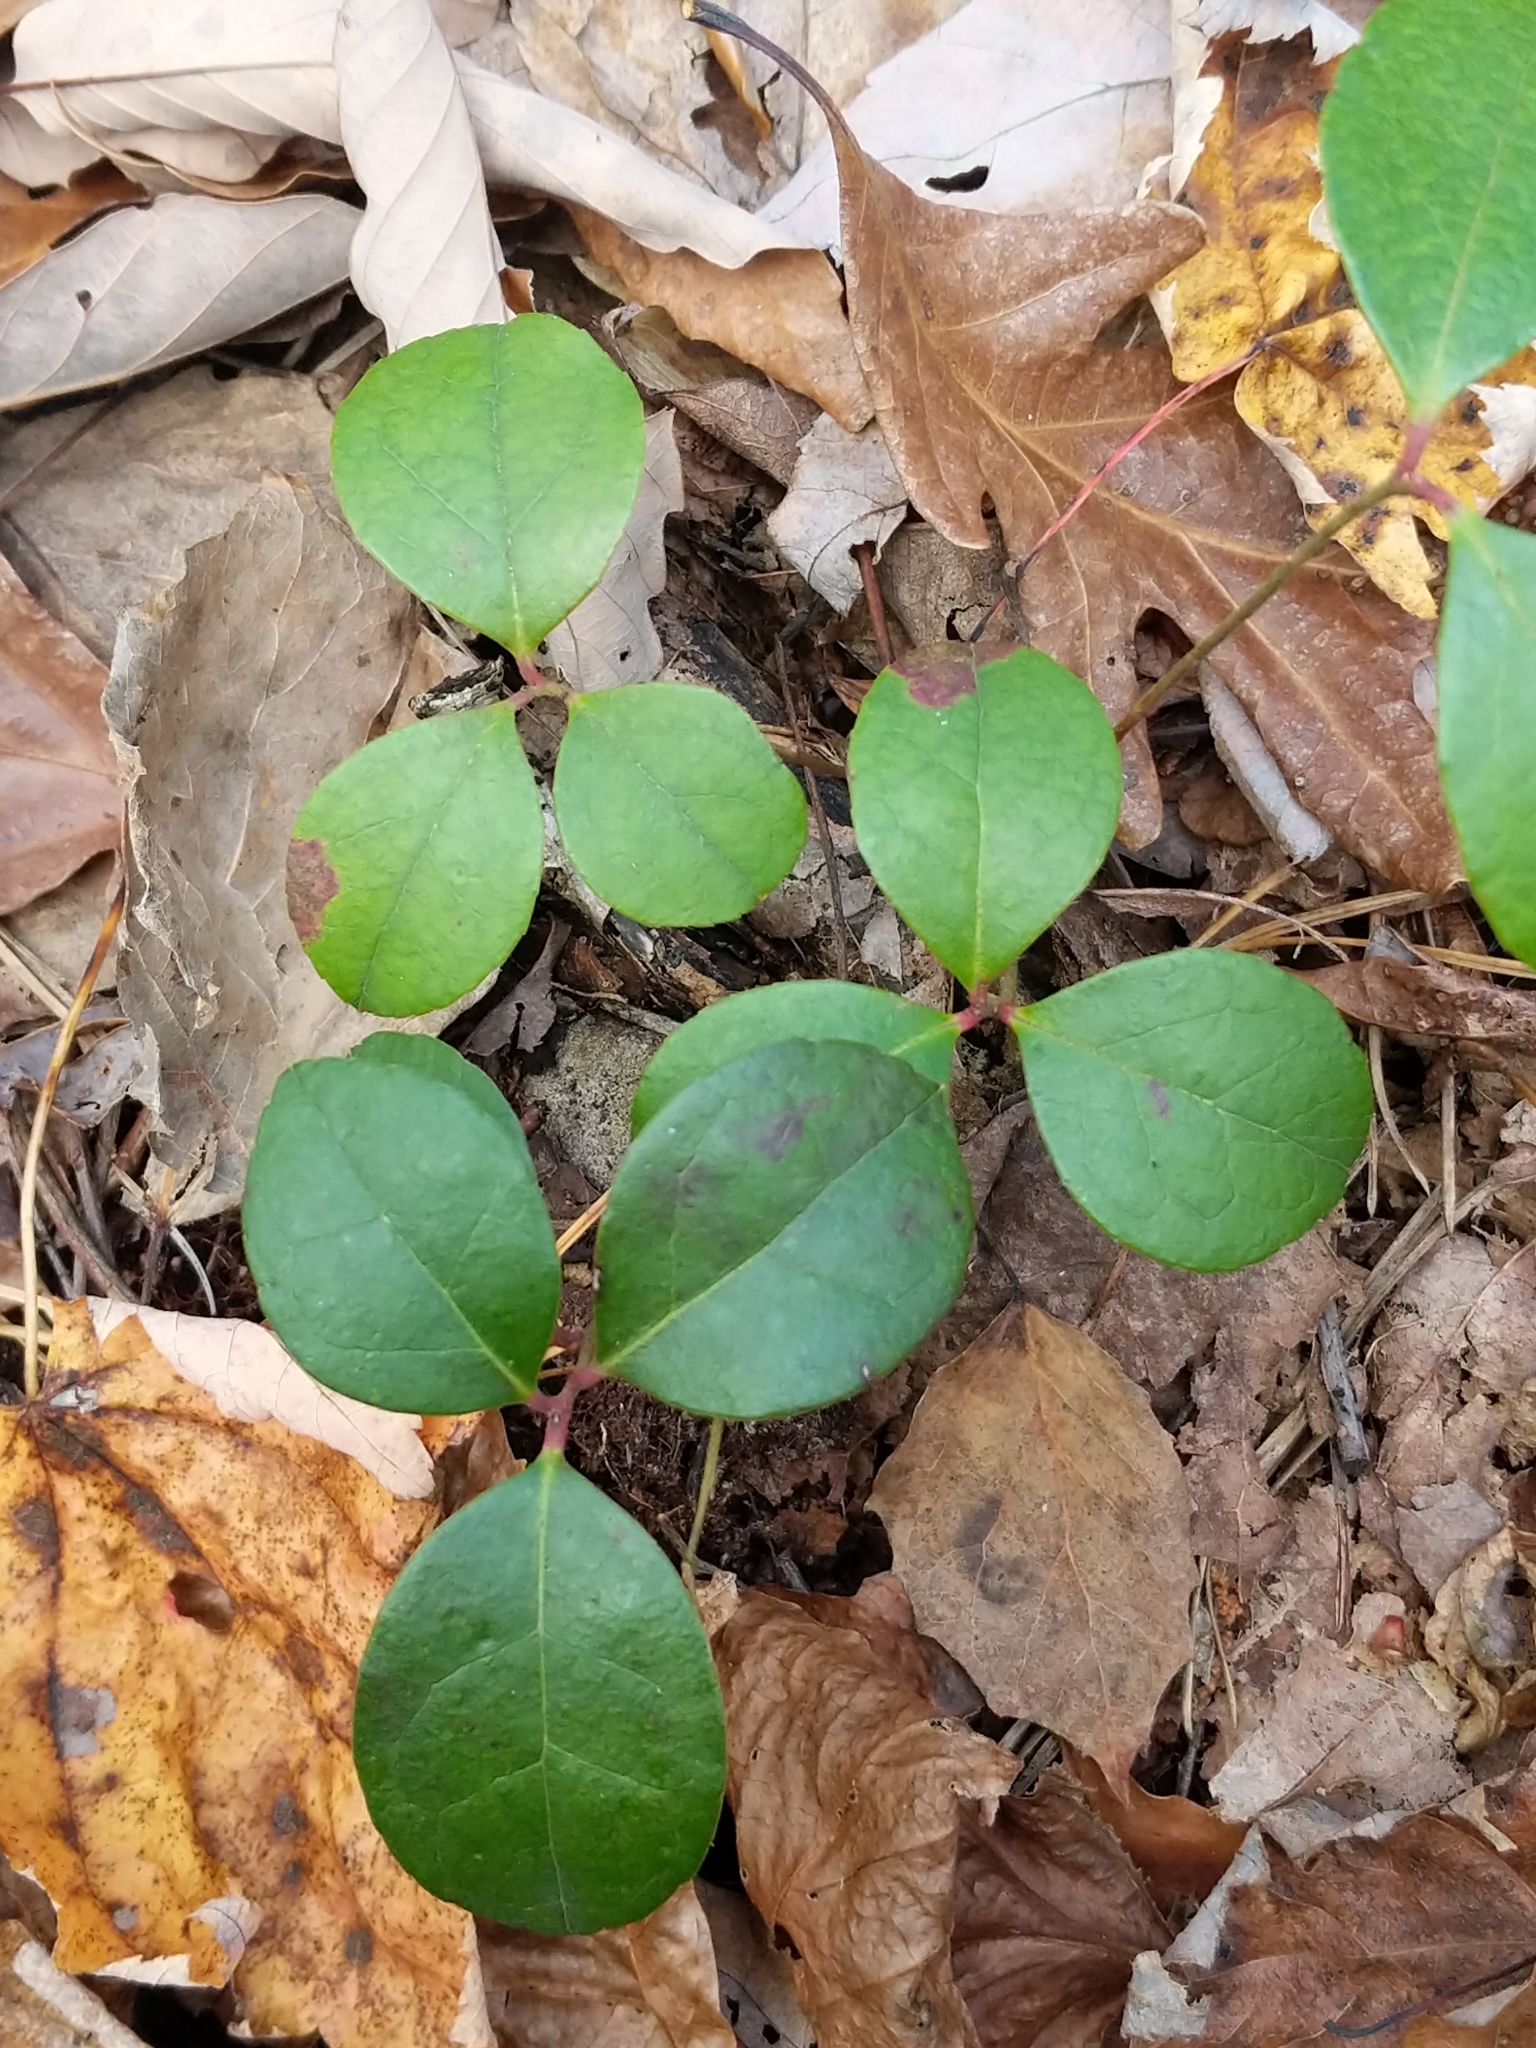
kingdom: Plantae
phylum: Tracheophyta
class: Magnoliopsida
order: Ericales
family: Ericaceae
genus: Gaultheria
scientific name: Gaultheria procumbens
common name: Checkerberry
